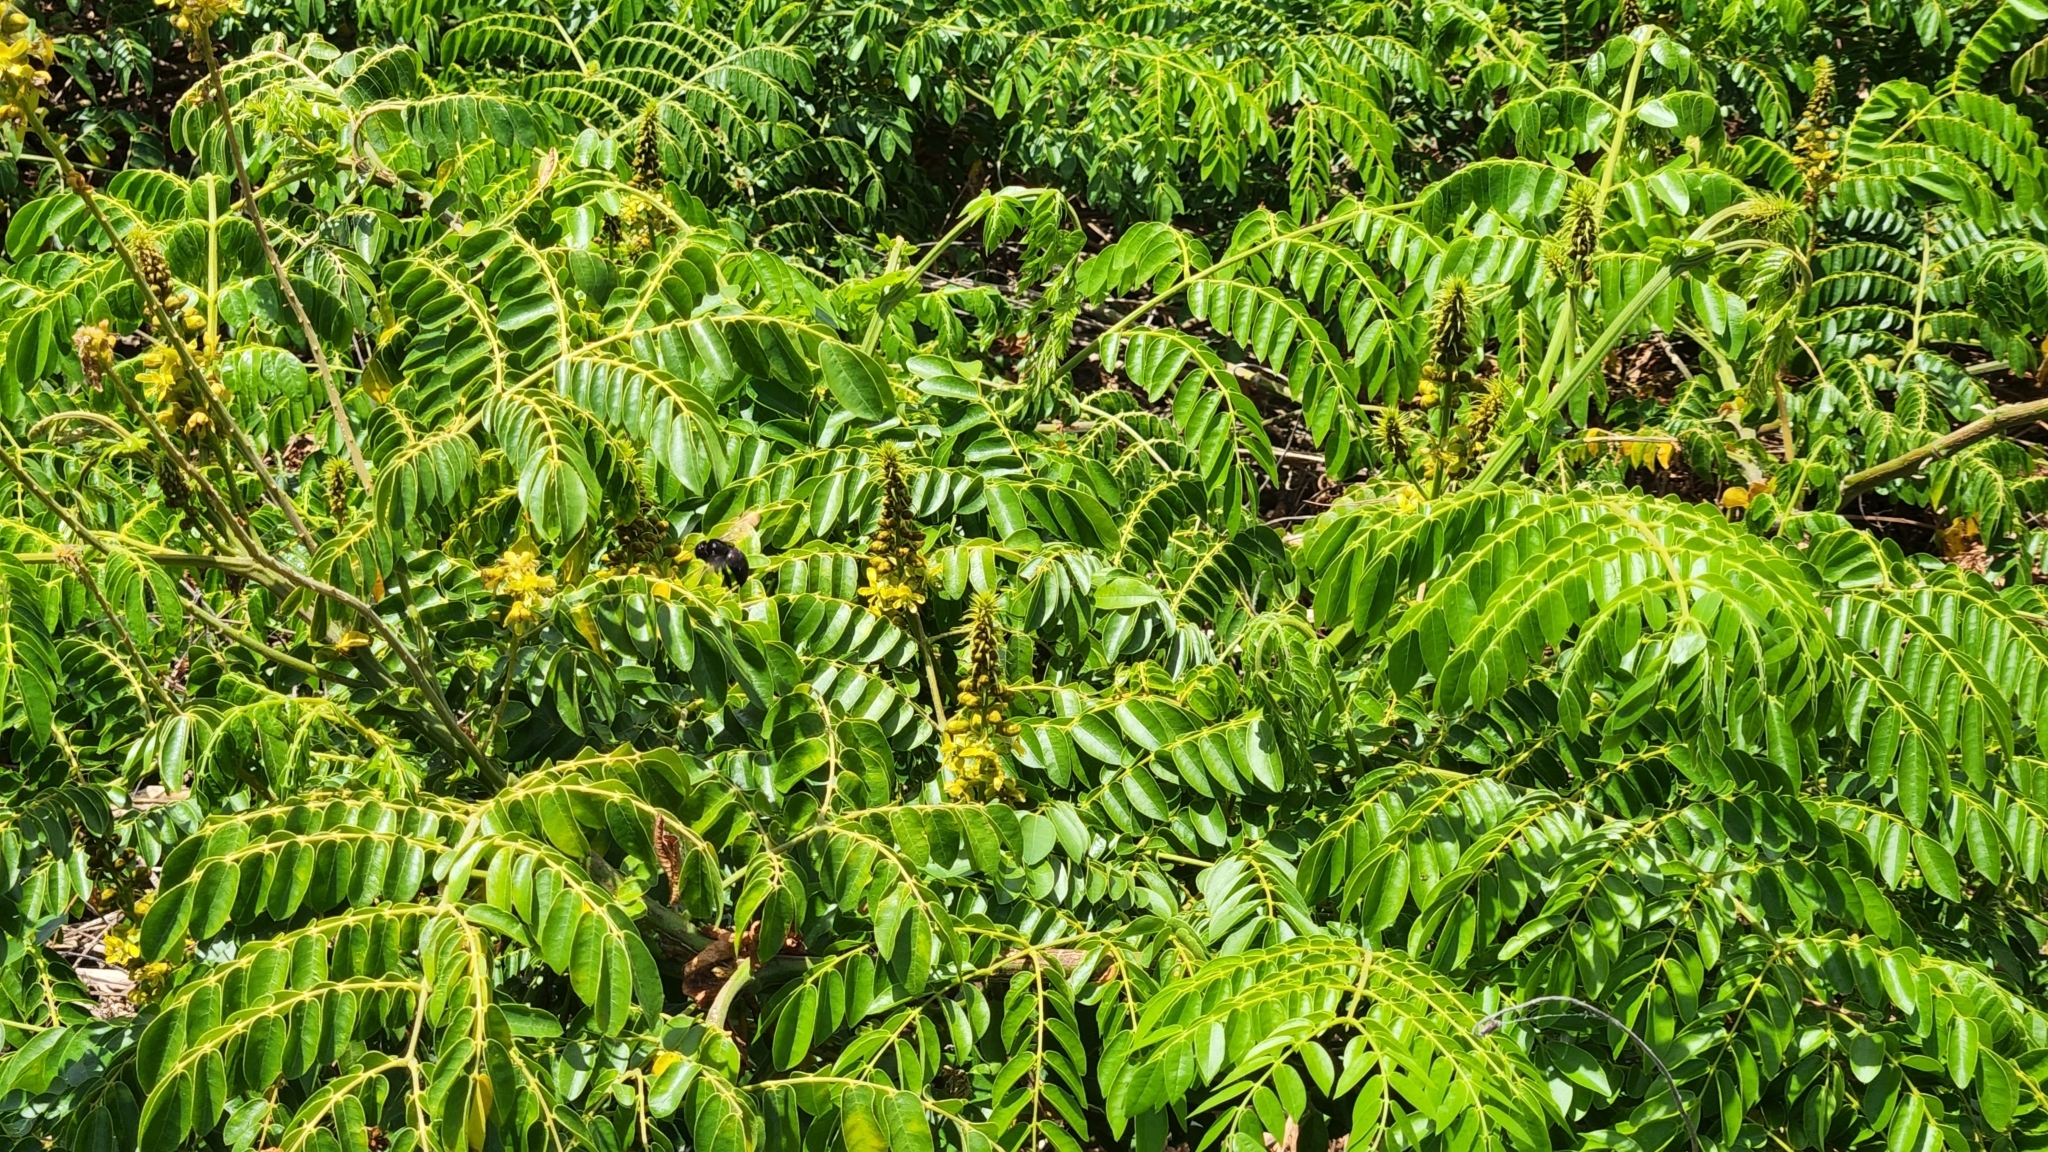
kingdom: Animalia
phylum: Arthropoda
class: Insecta
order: Hymenoptera
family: Apidae
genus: Xylocopa
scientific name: Xylocopa clarionensis
